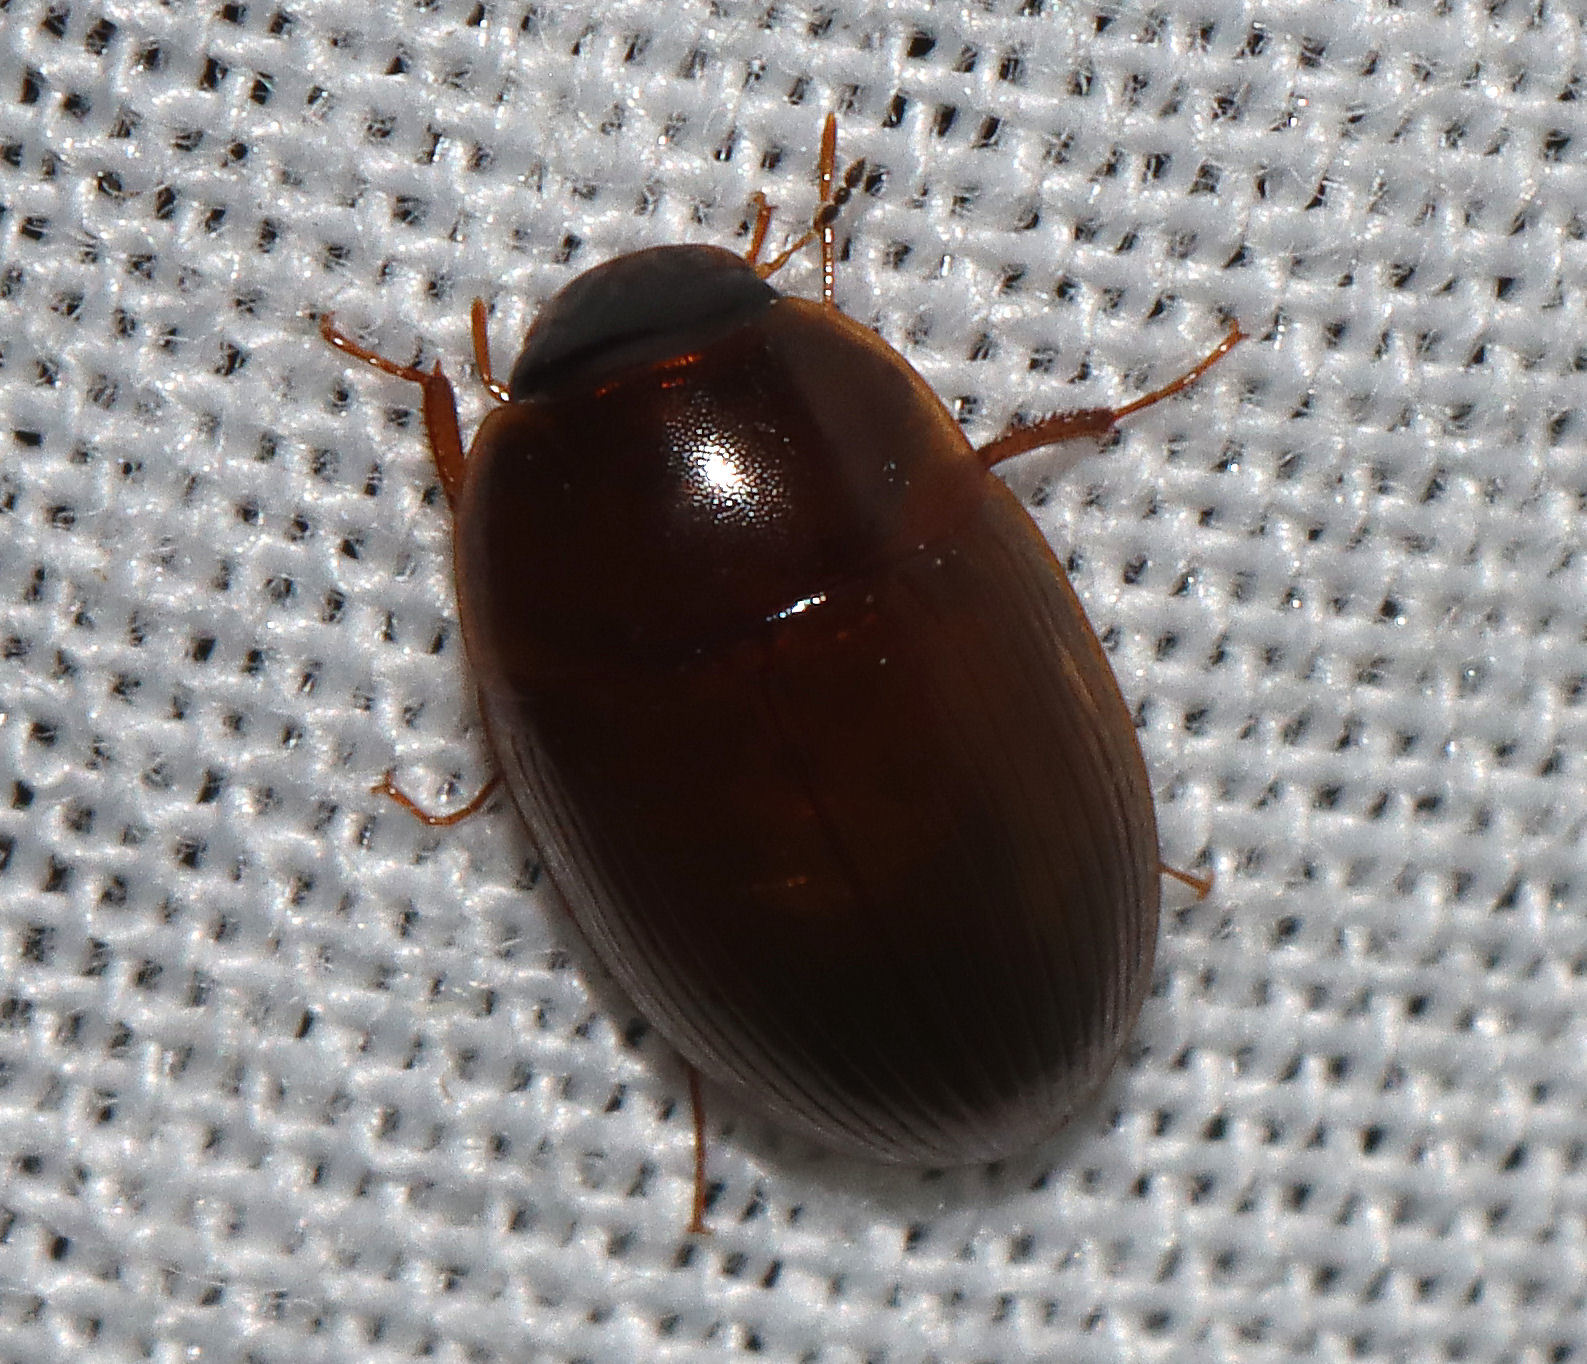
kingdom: Animalia
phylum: Arthropoda
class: Insecta
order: Coleoptera
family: Hydrophilidae
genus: Cymbiodyta
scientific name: Cymbiodyta bifida
